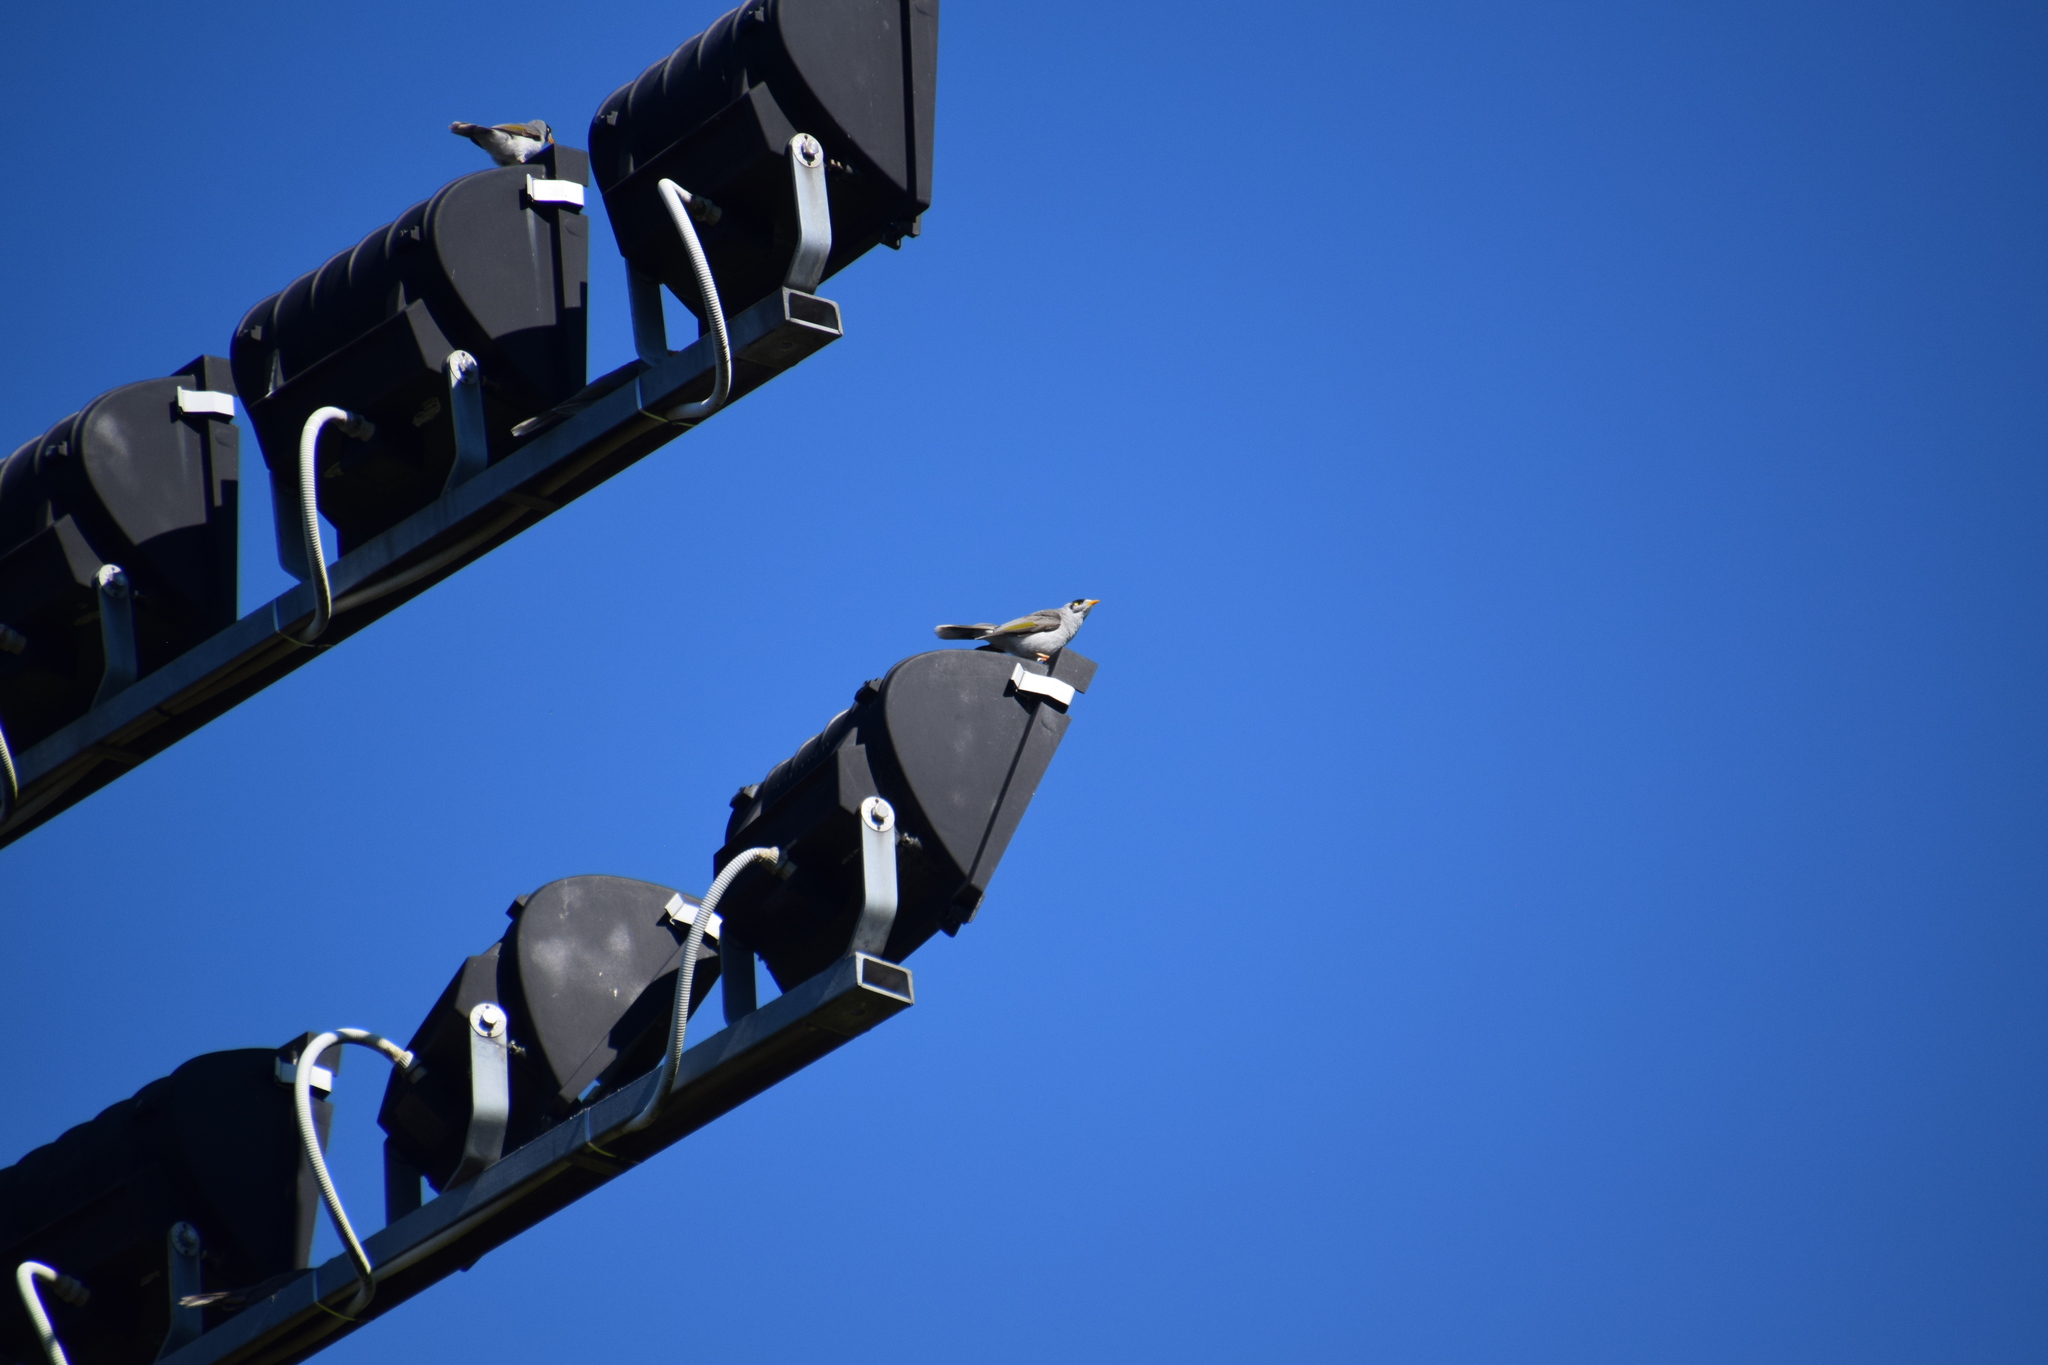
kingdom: Animalia
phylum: Chordata
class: Aves
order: Passeriformes
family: Meliphagidae
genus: Manorina
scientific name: Manorina melanocephala
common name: Noisy miner
